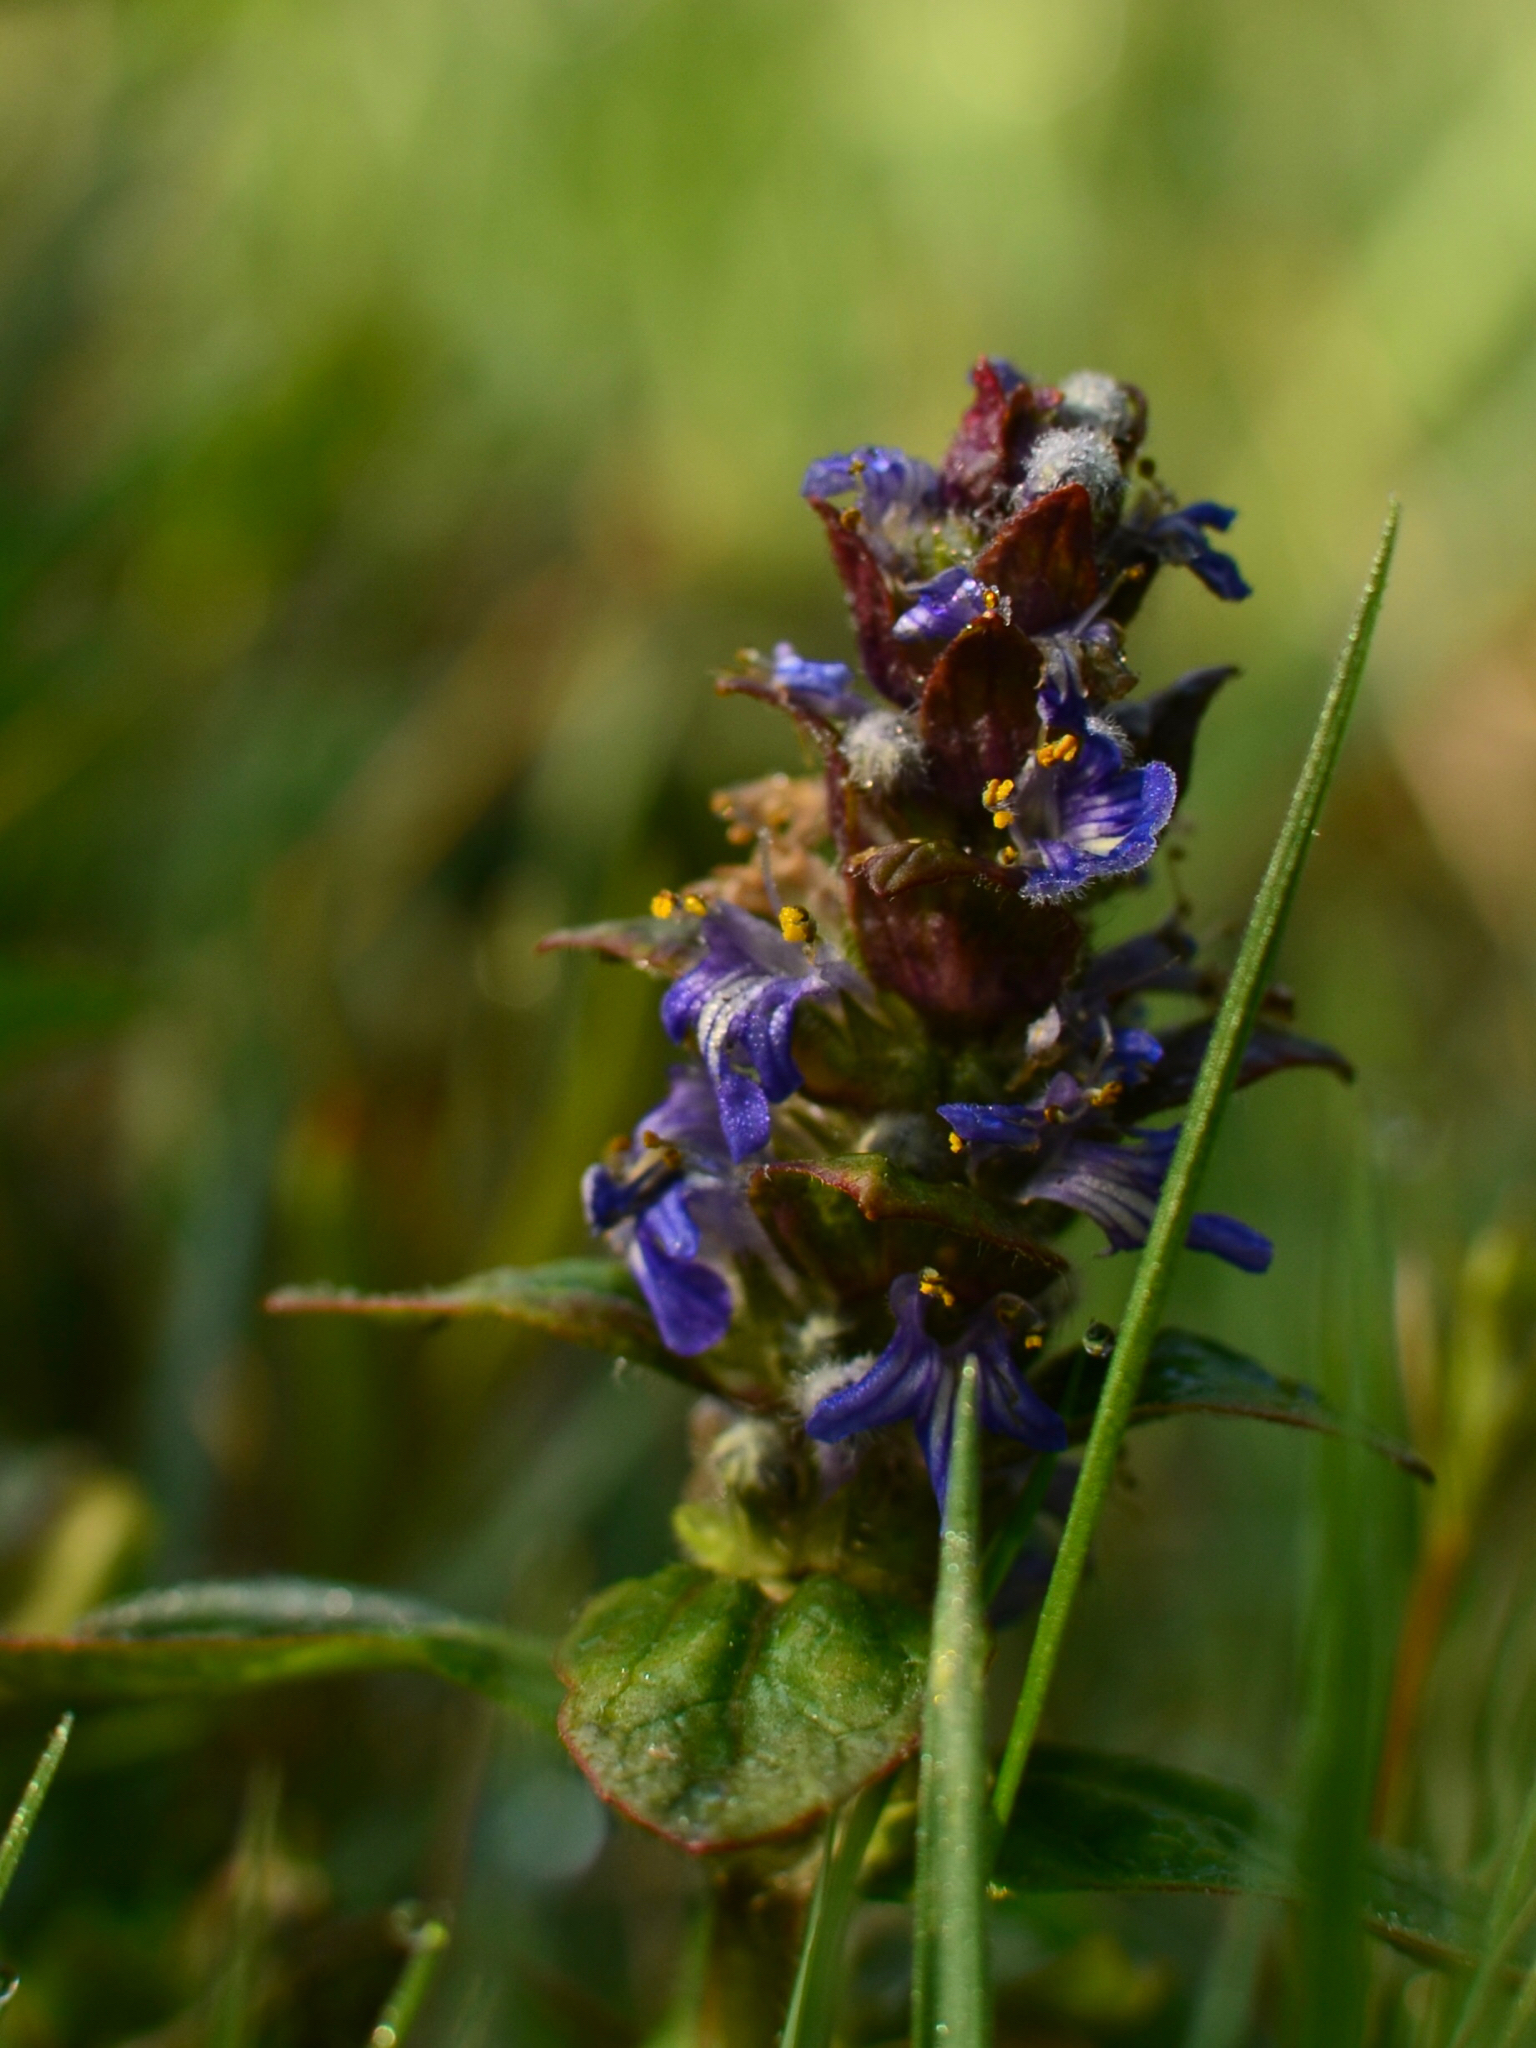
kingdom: Plantae
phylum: Tracheophyta
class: Magnoliopsida
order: Lamiales
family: Lamiaceae
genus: Ajuga
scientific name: Ajuga reptans
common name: Bugle
